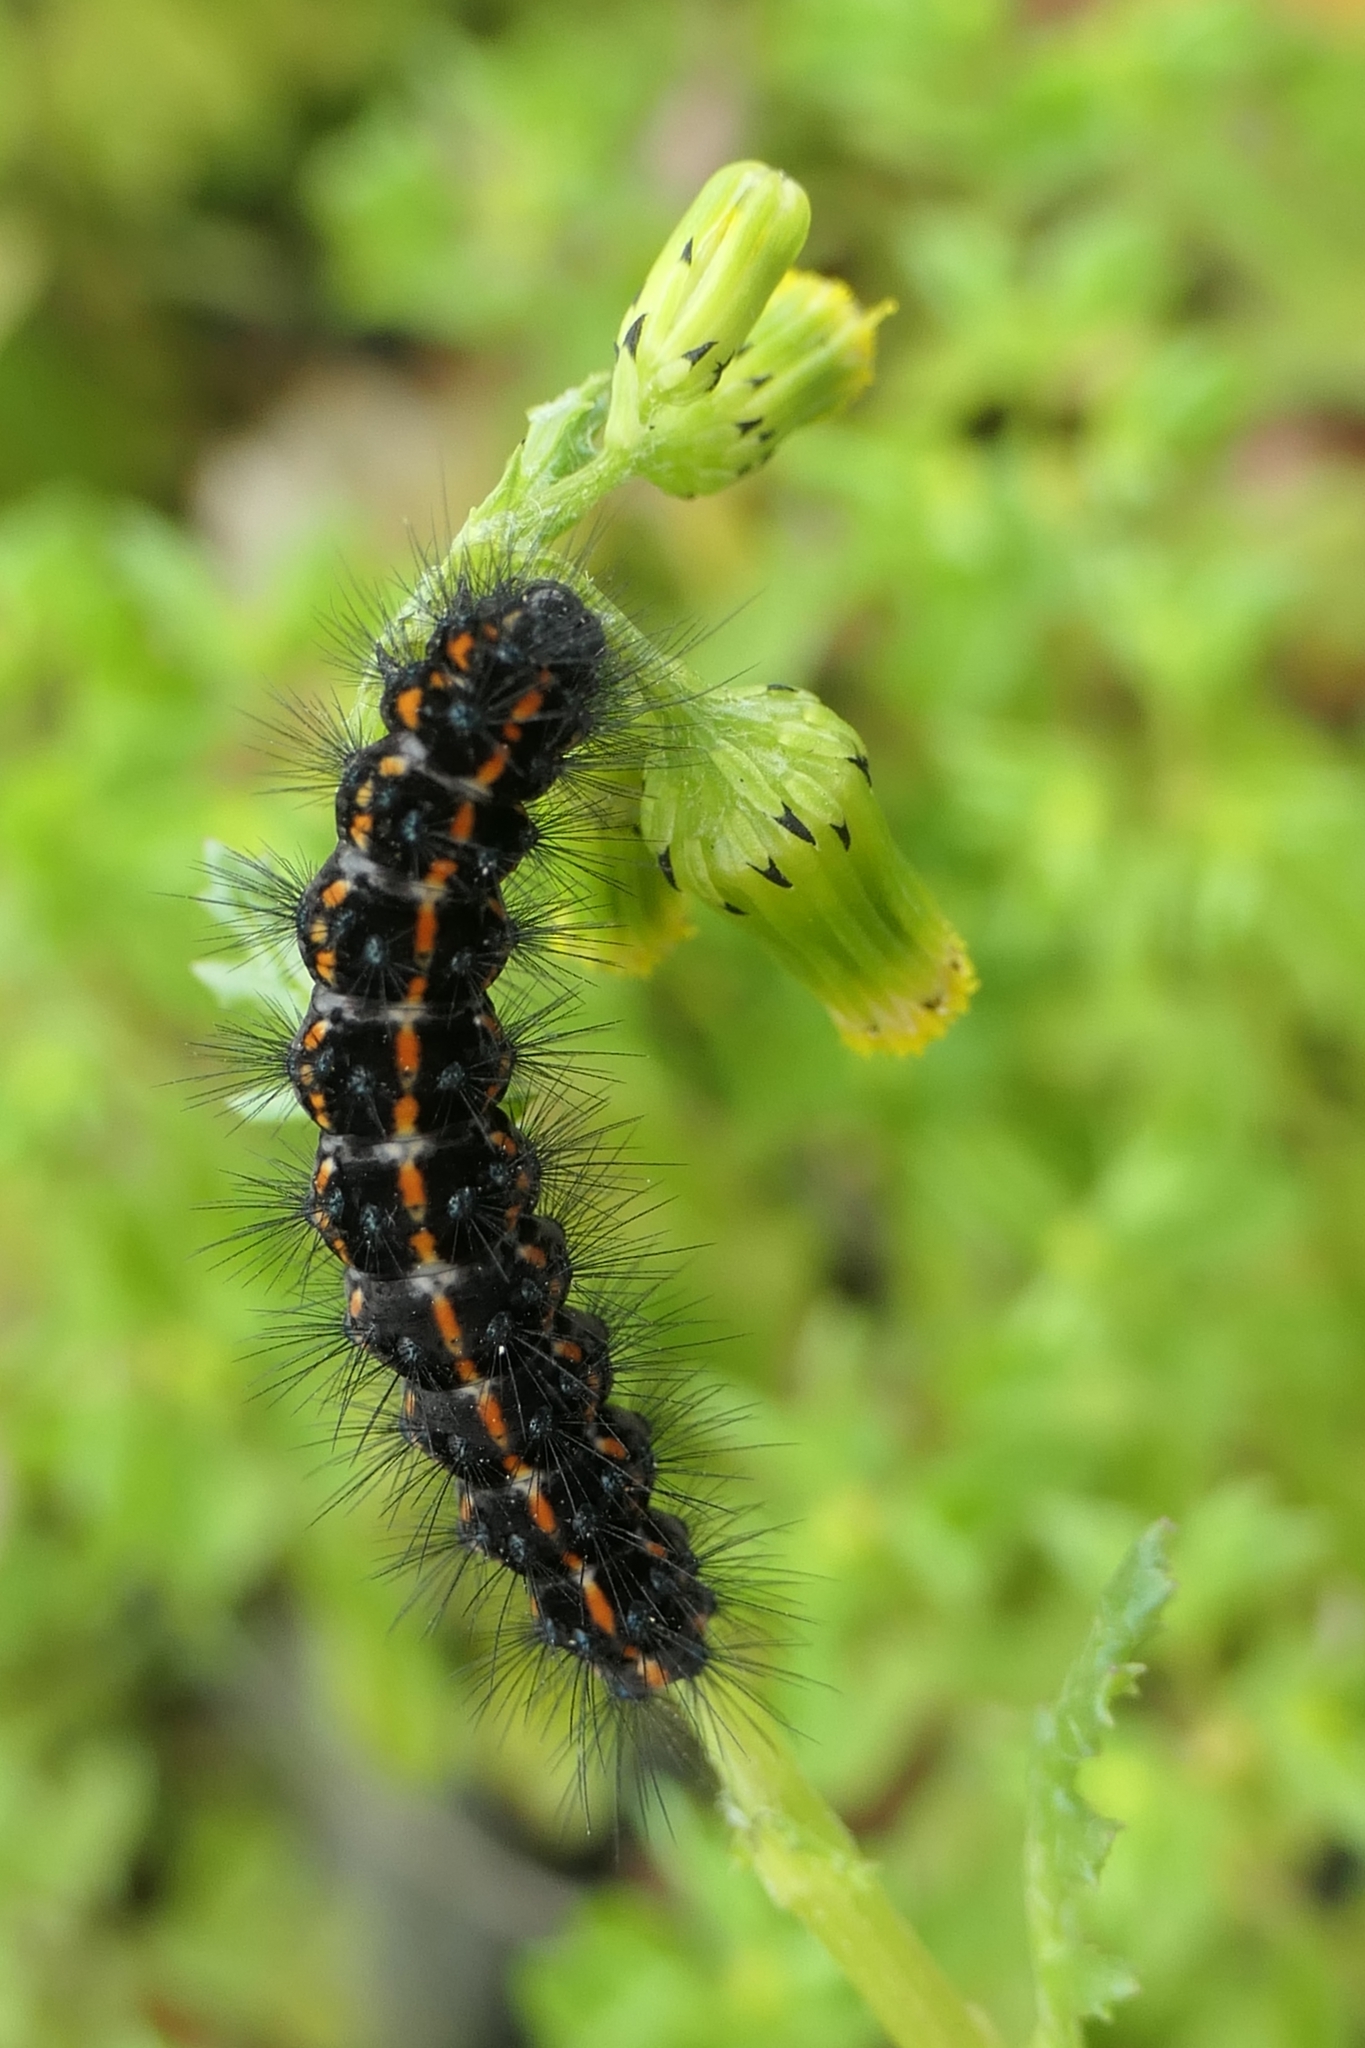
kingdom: Animalia
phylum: Arthropoda
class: Insecta
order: Lepidoptera
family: Erebidae
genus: Nyctemera
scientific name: Nyctemera annulatum
